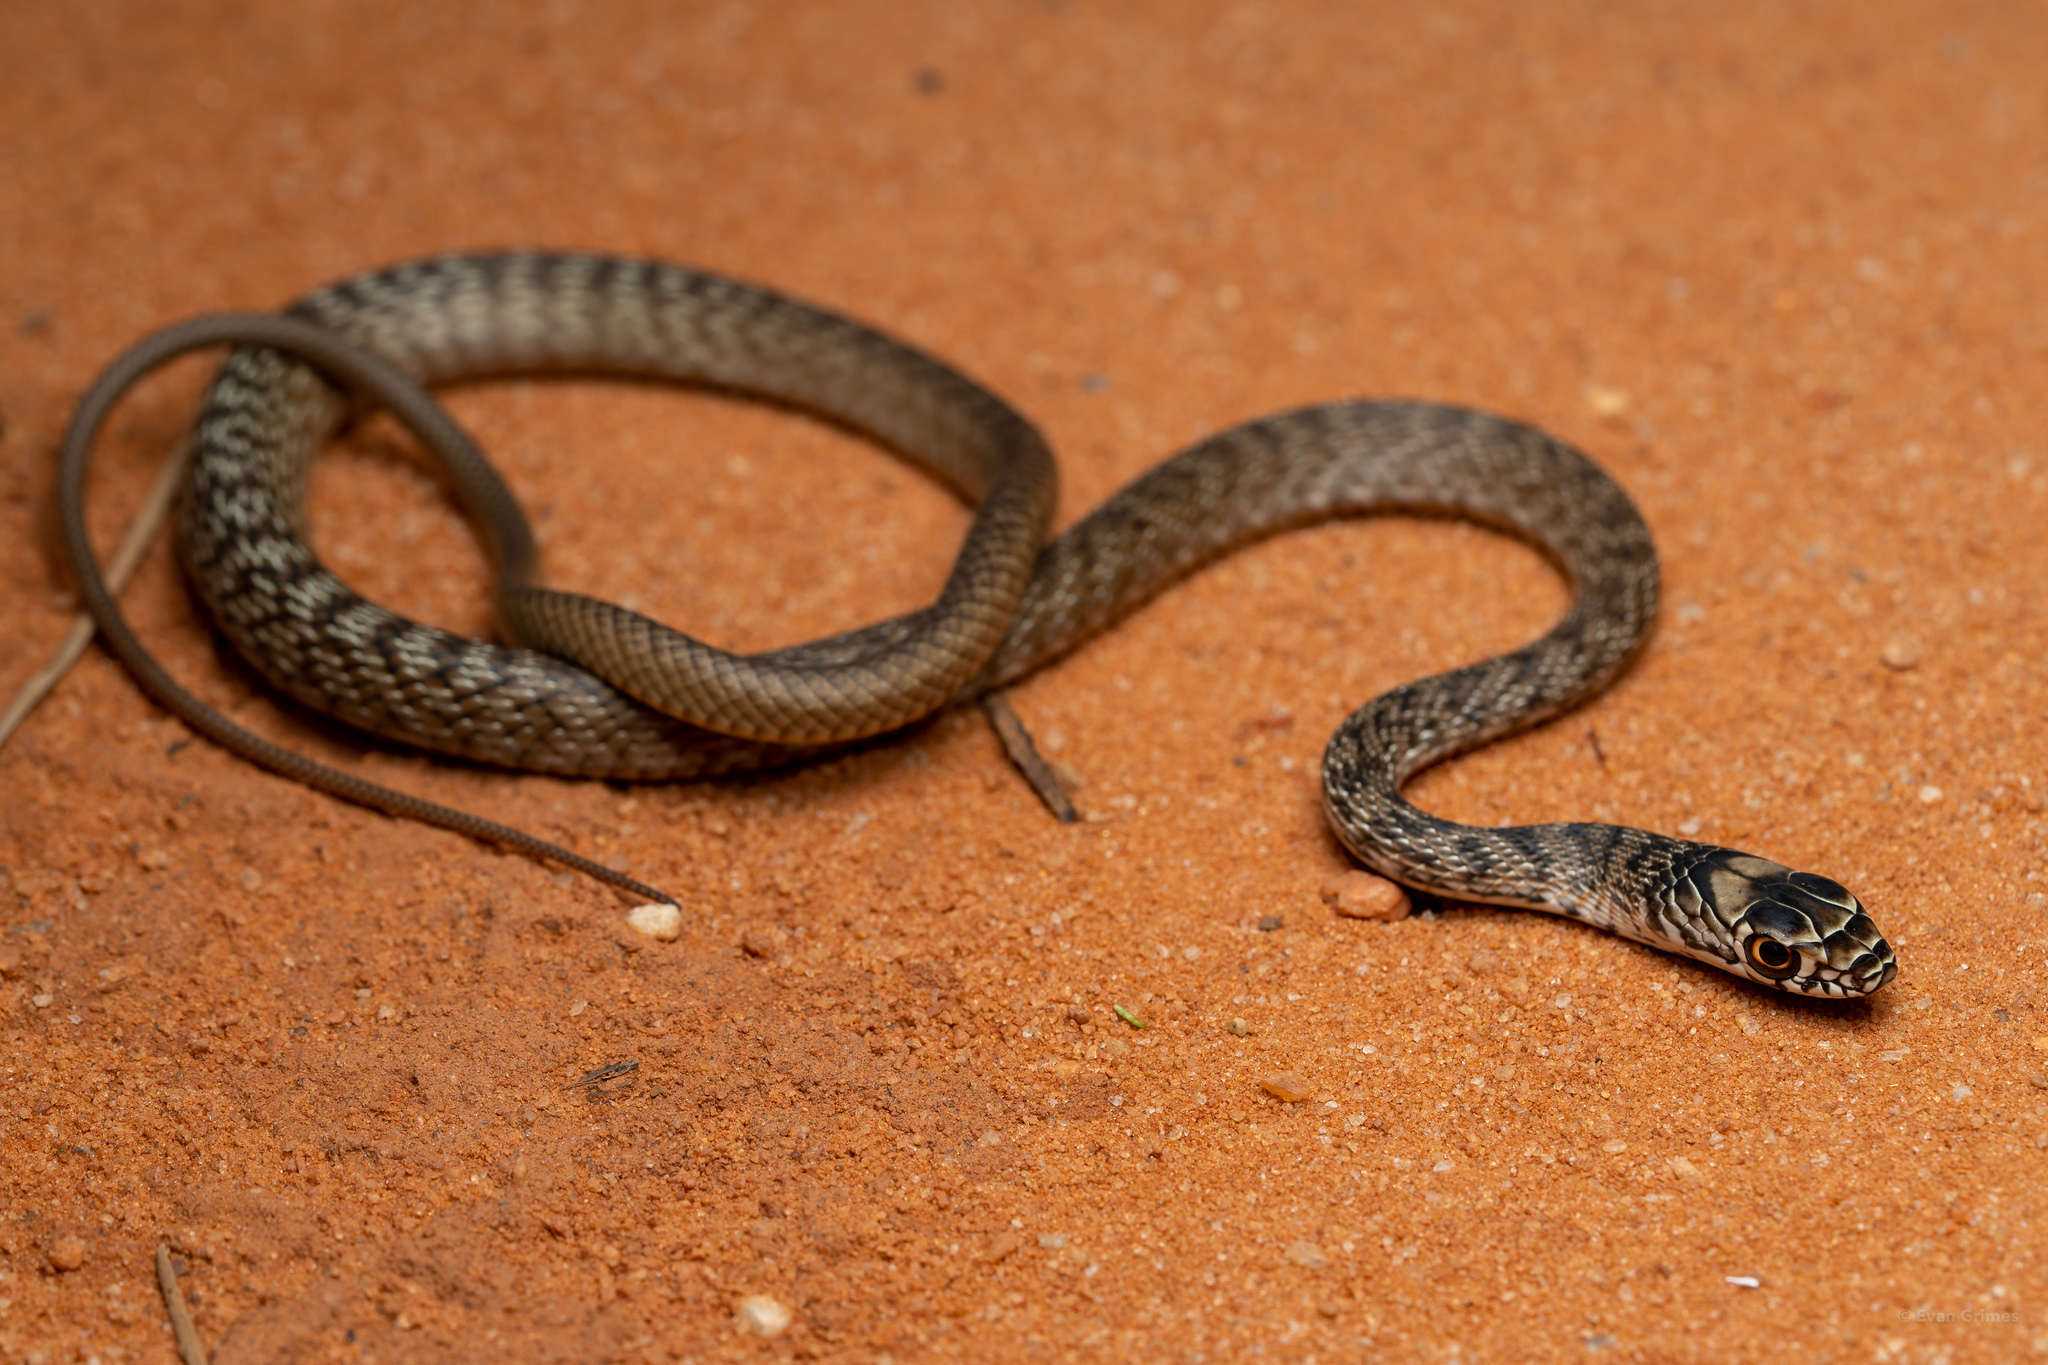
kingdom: Animalia
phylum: Chordata
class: Squamata
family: Colubridae
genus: Masticophis
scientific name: Masticophis flagellum
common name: Coachwhip
